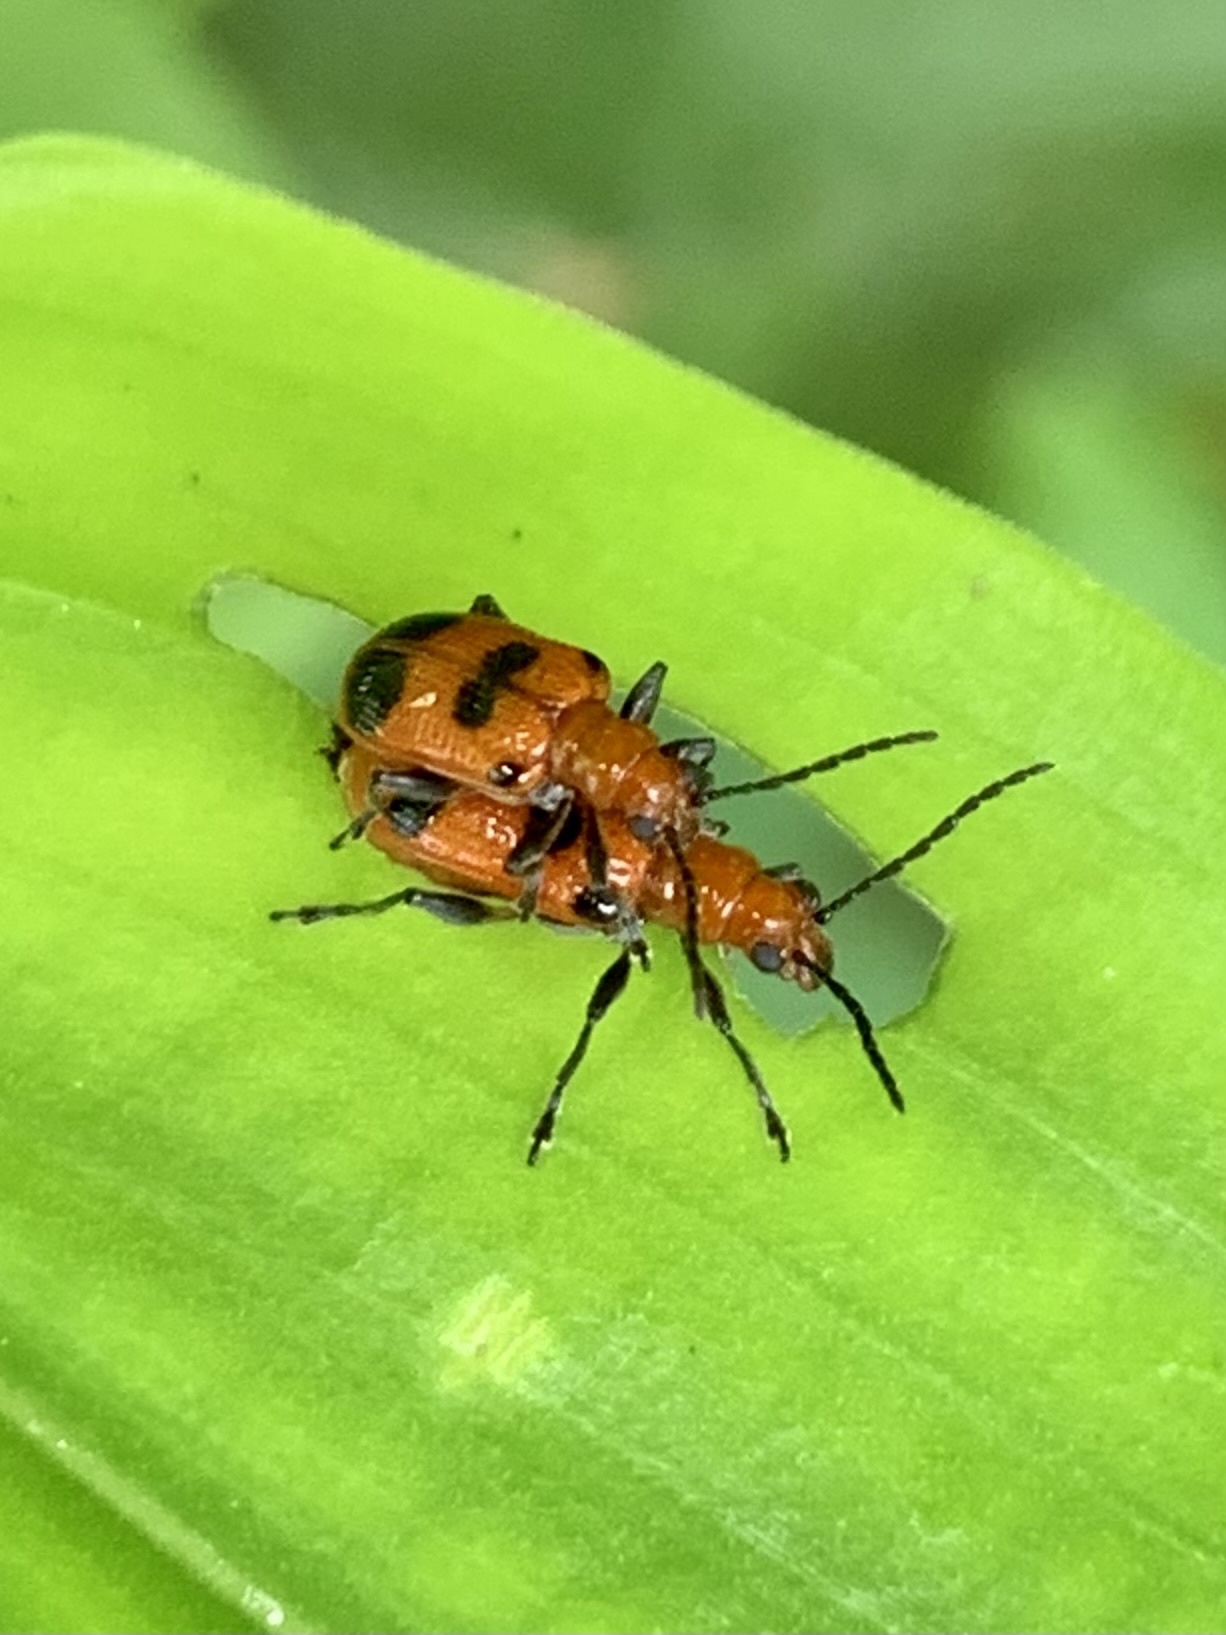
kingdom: Animalia
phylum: Arthropoda
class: Insecta
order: Coleoptera
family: Chrysomelidae
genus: Neolema
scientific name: Neolema sexpunctata
